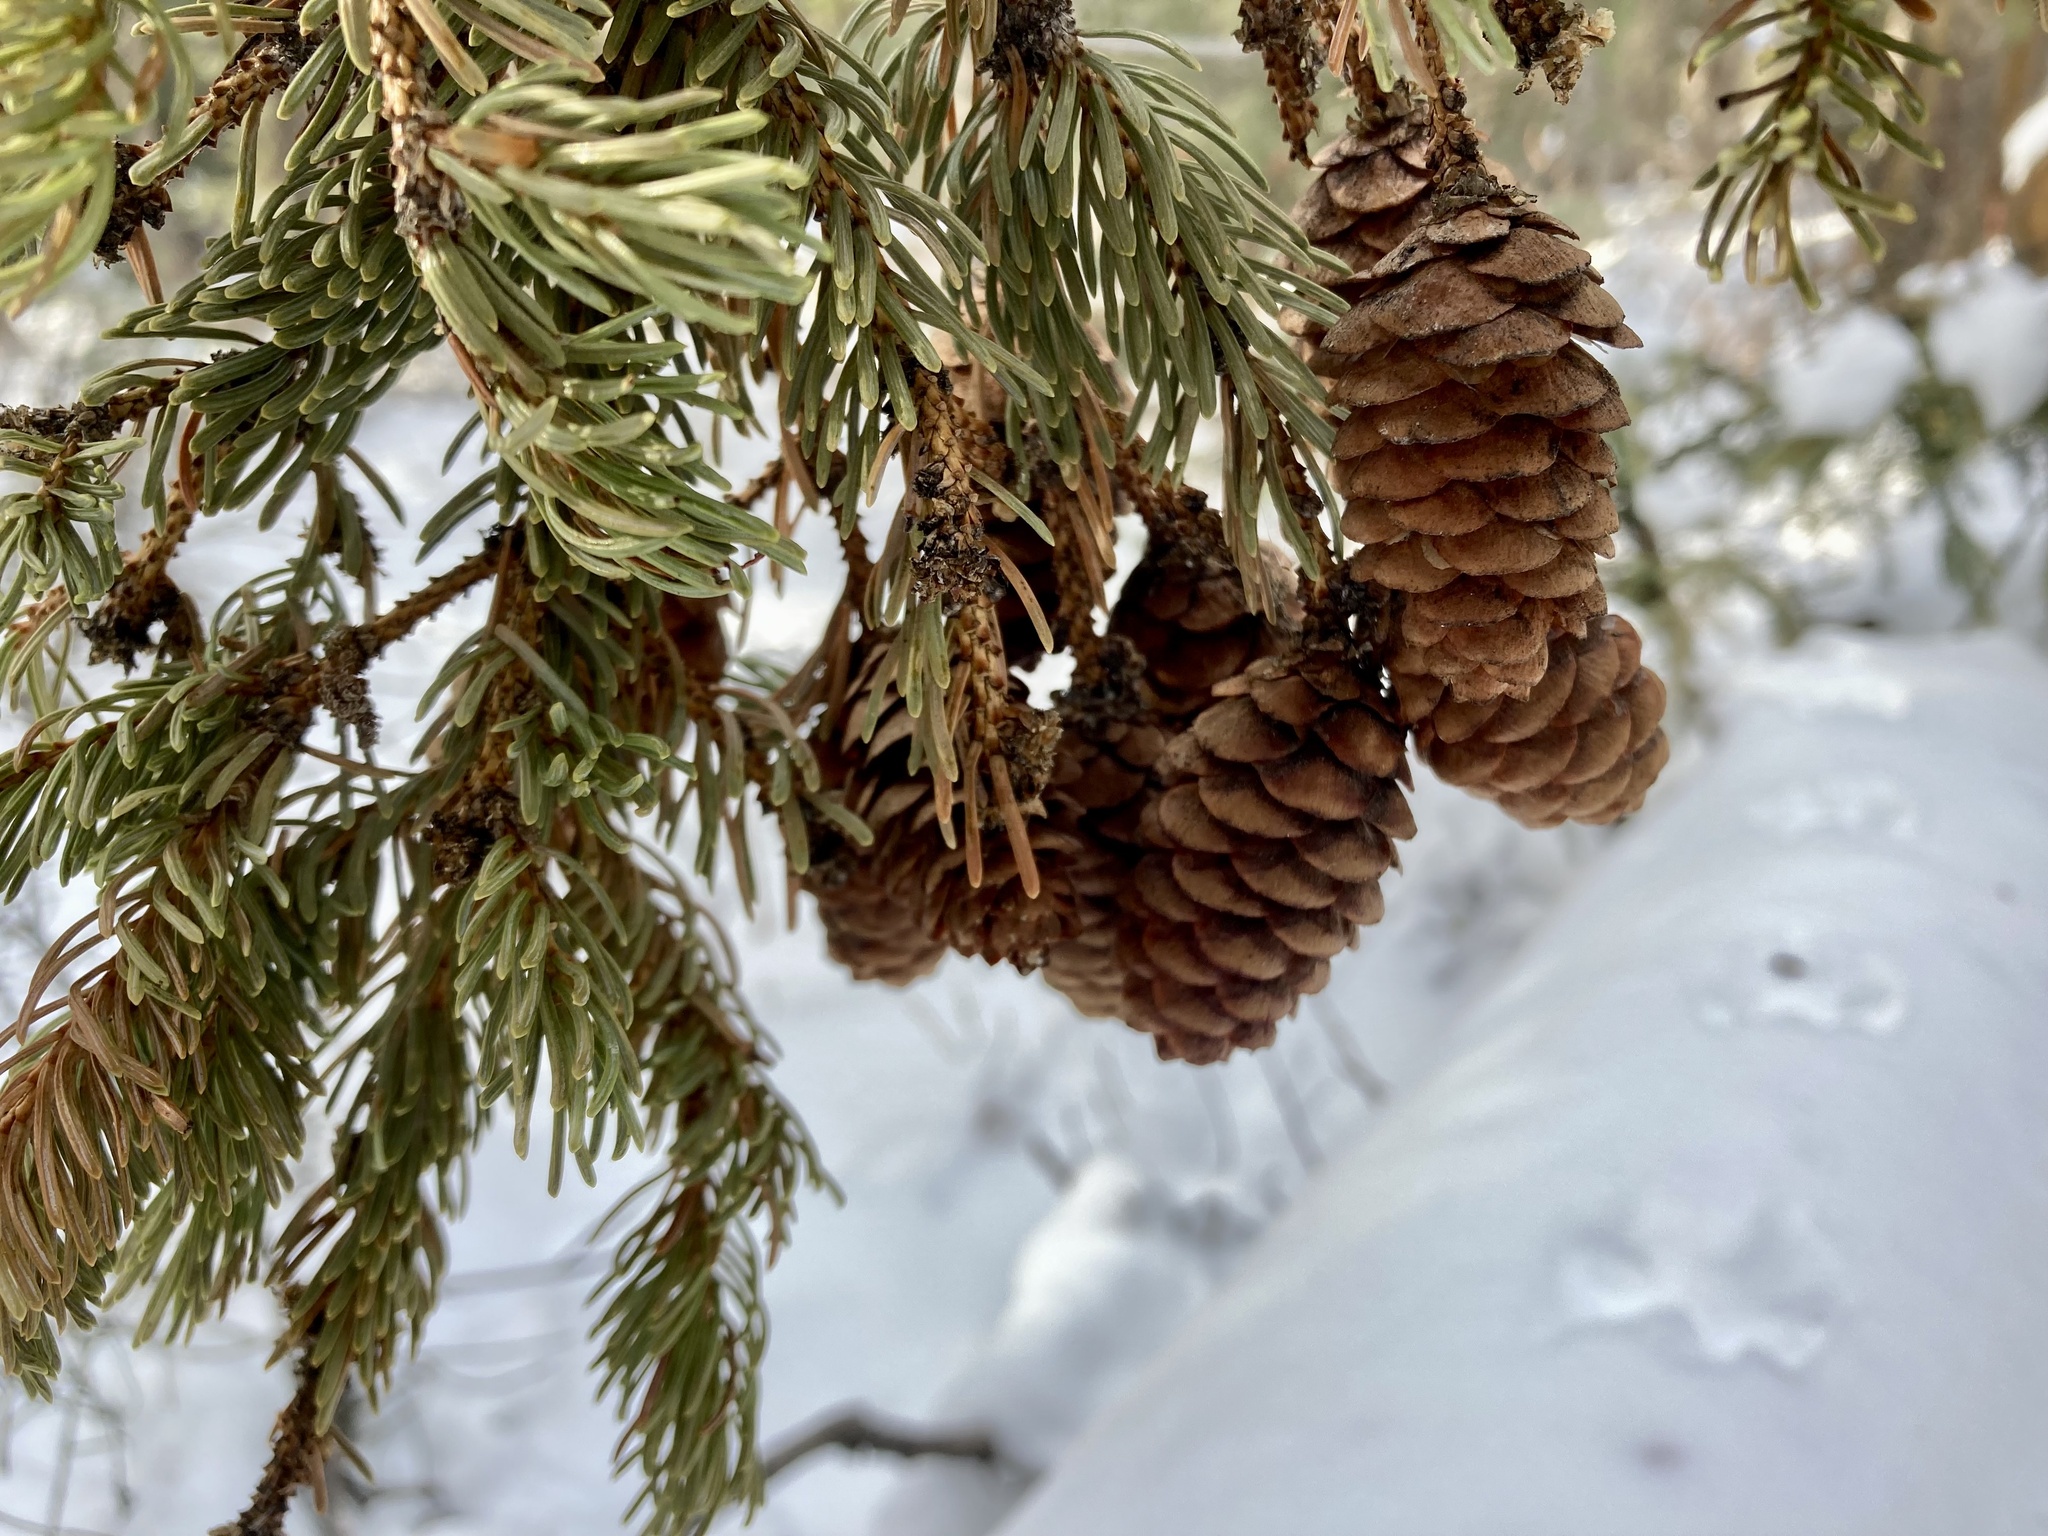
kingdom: Plantae
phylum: Tracheophyta
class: Pinopsida
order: Pinales
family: Pinaceae
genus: Picea
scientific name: Picea glauca
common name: White spruce
